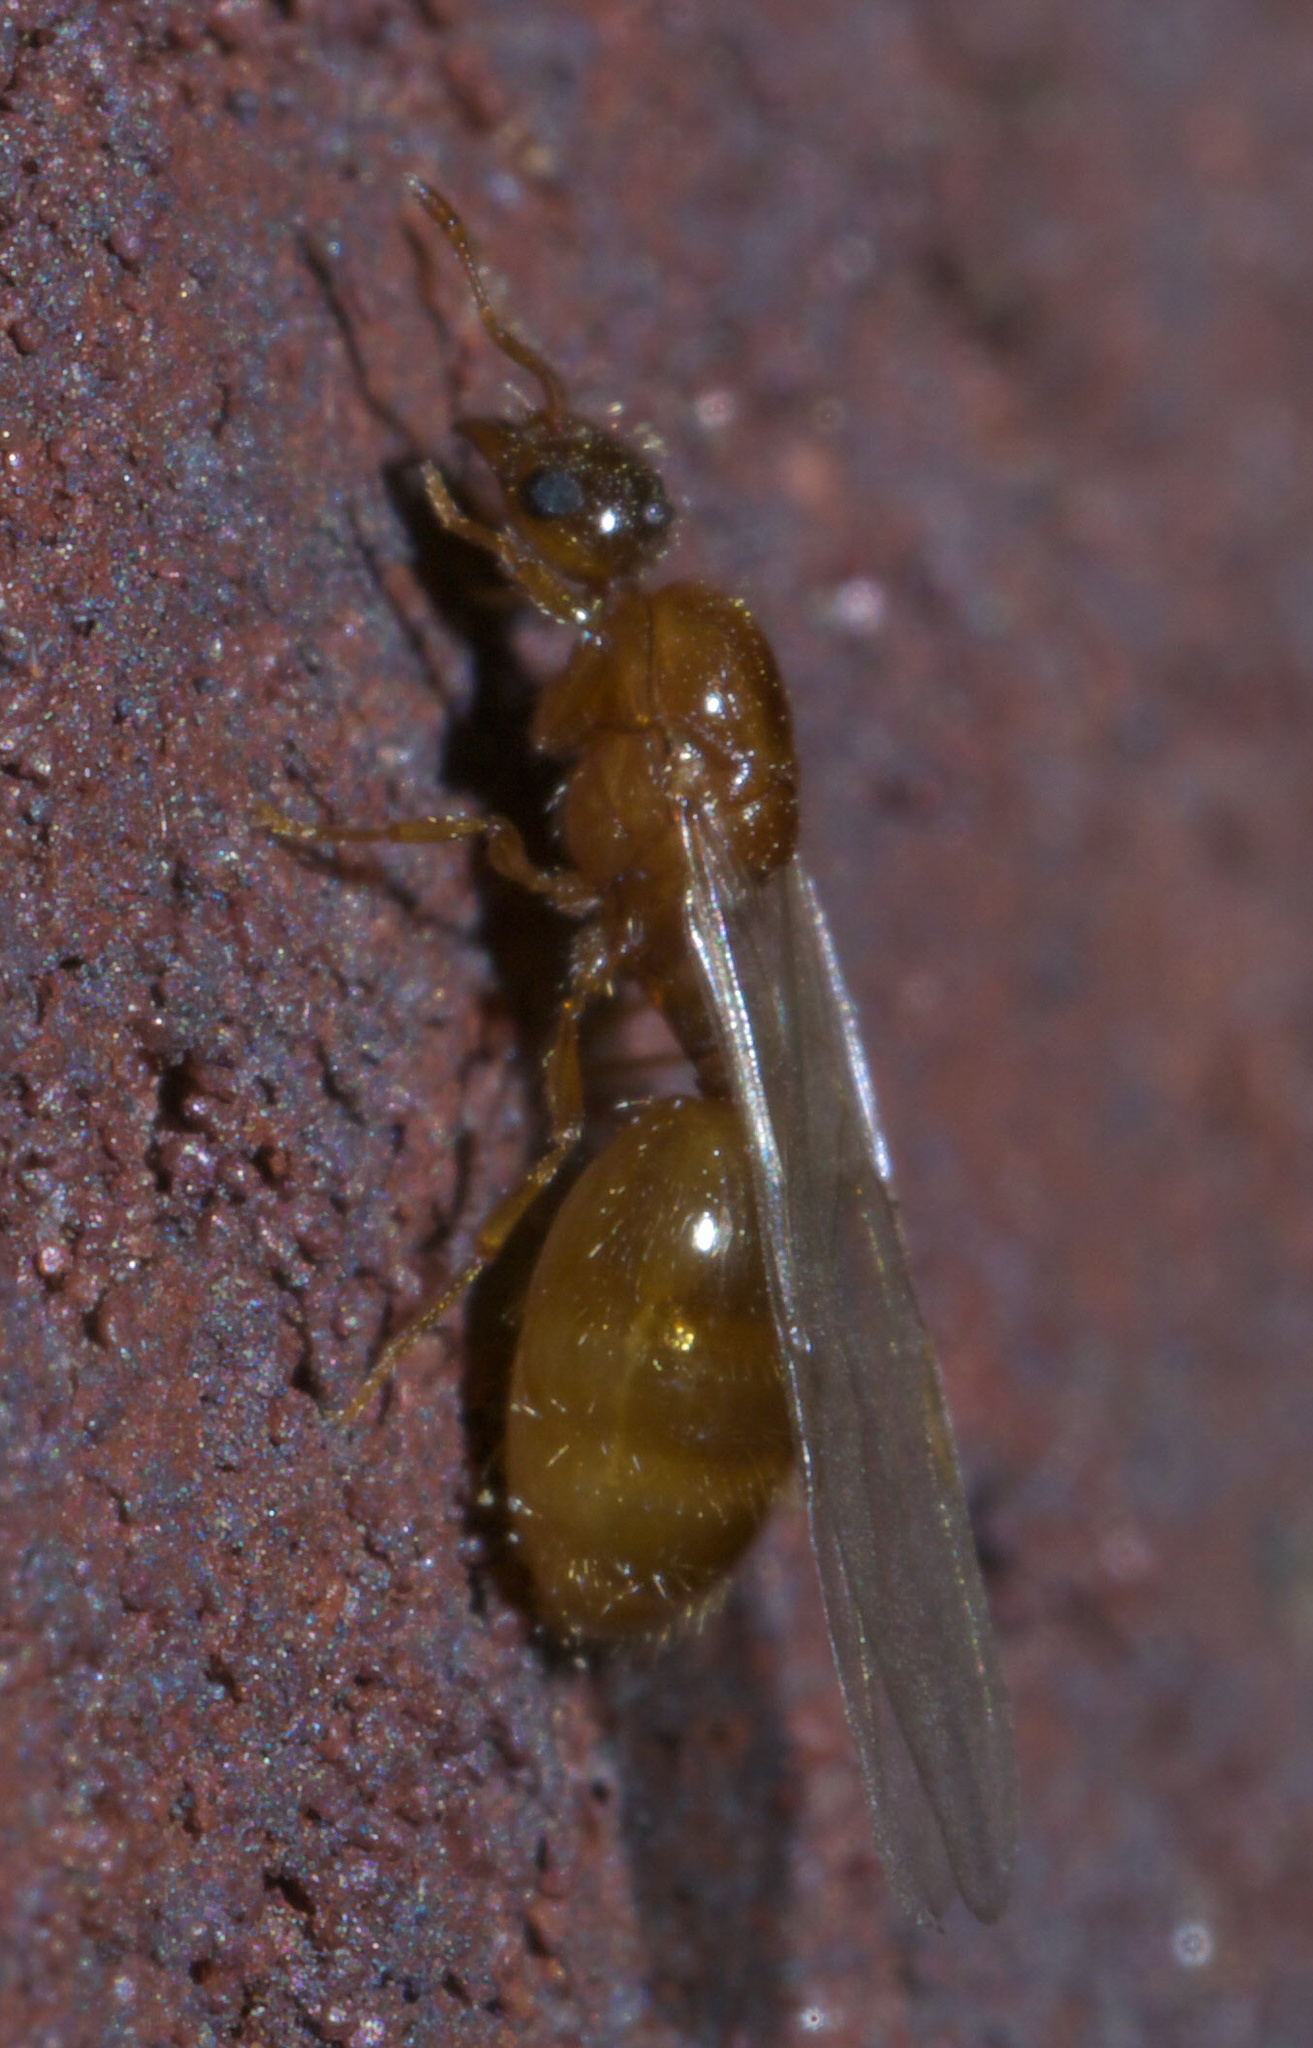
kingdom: Animalia
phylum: Arthropoda
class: Insecta
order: Hymenoptera
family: Formicidae
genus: Solenopsis
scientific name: Solenopsis molesta
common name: Thief ant
